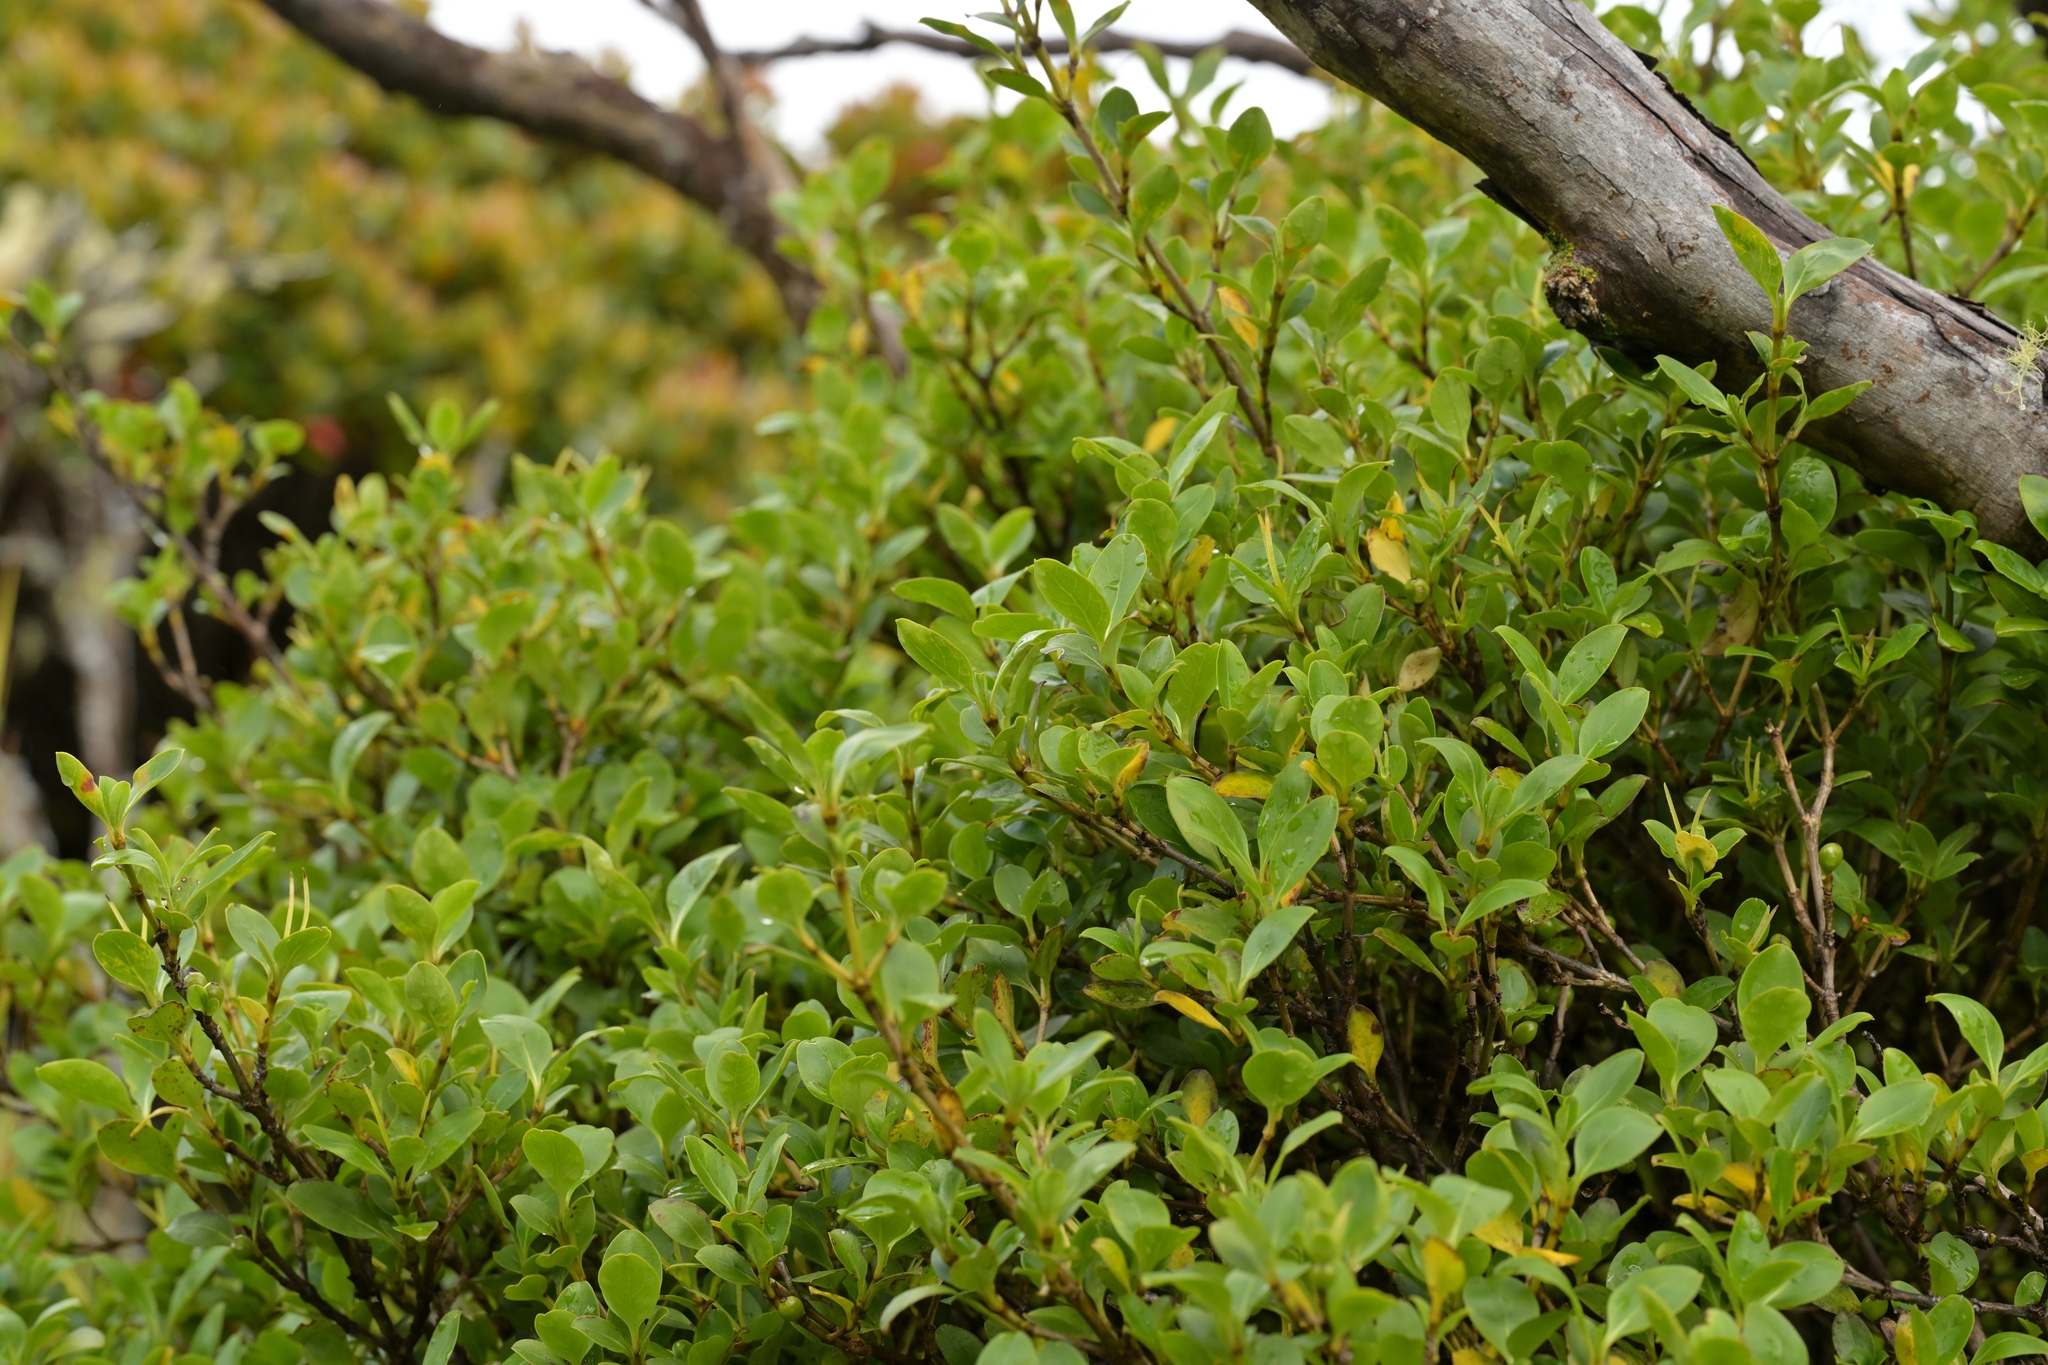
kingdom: Plantae
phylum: Tracheophyta
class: Magnoliopsida
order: Gentianales
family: Rubiaceae
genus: Coprosma
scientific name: Coprosma foetidissima
